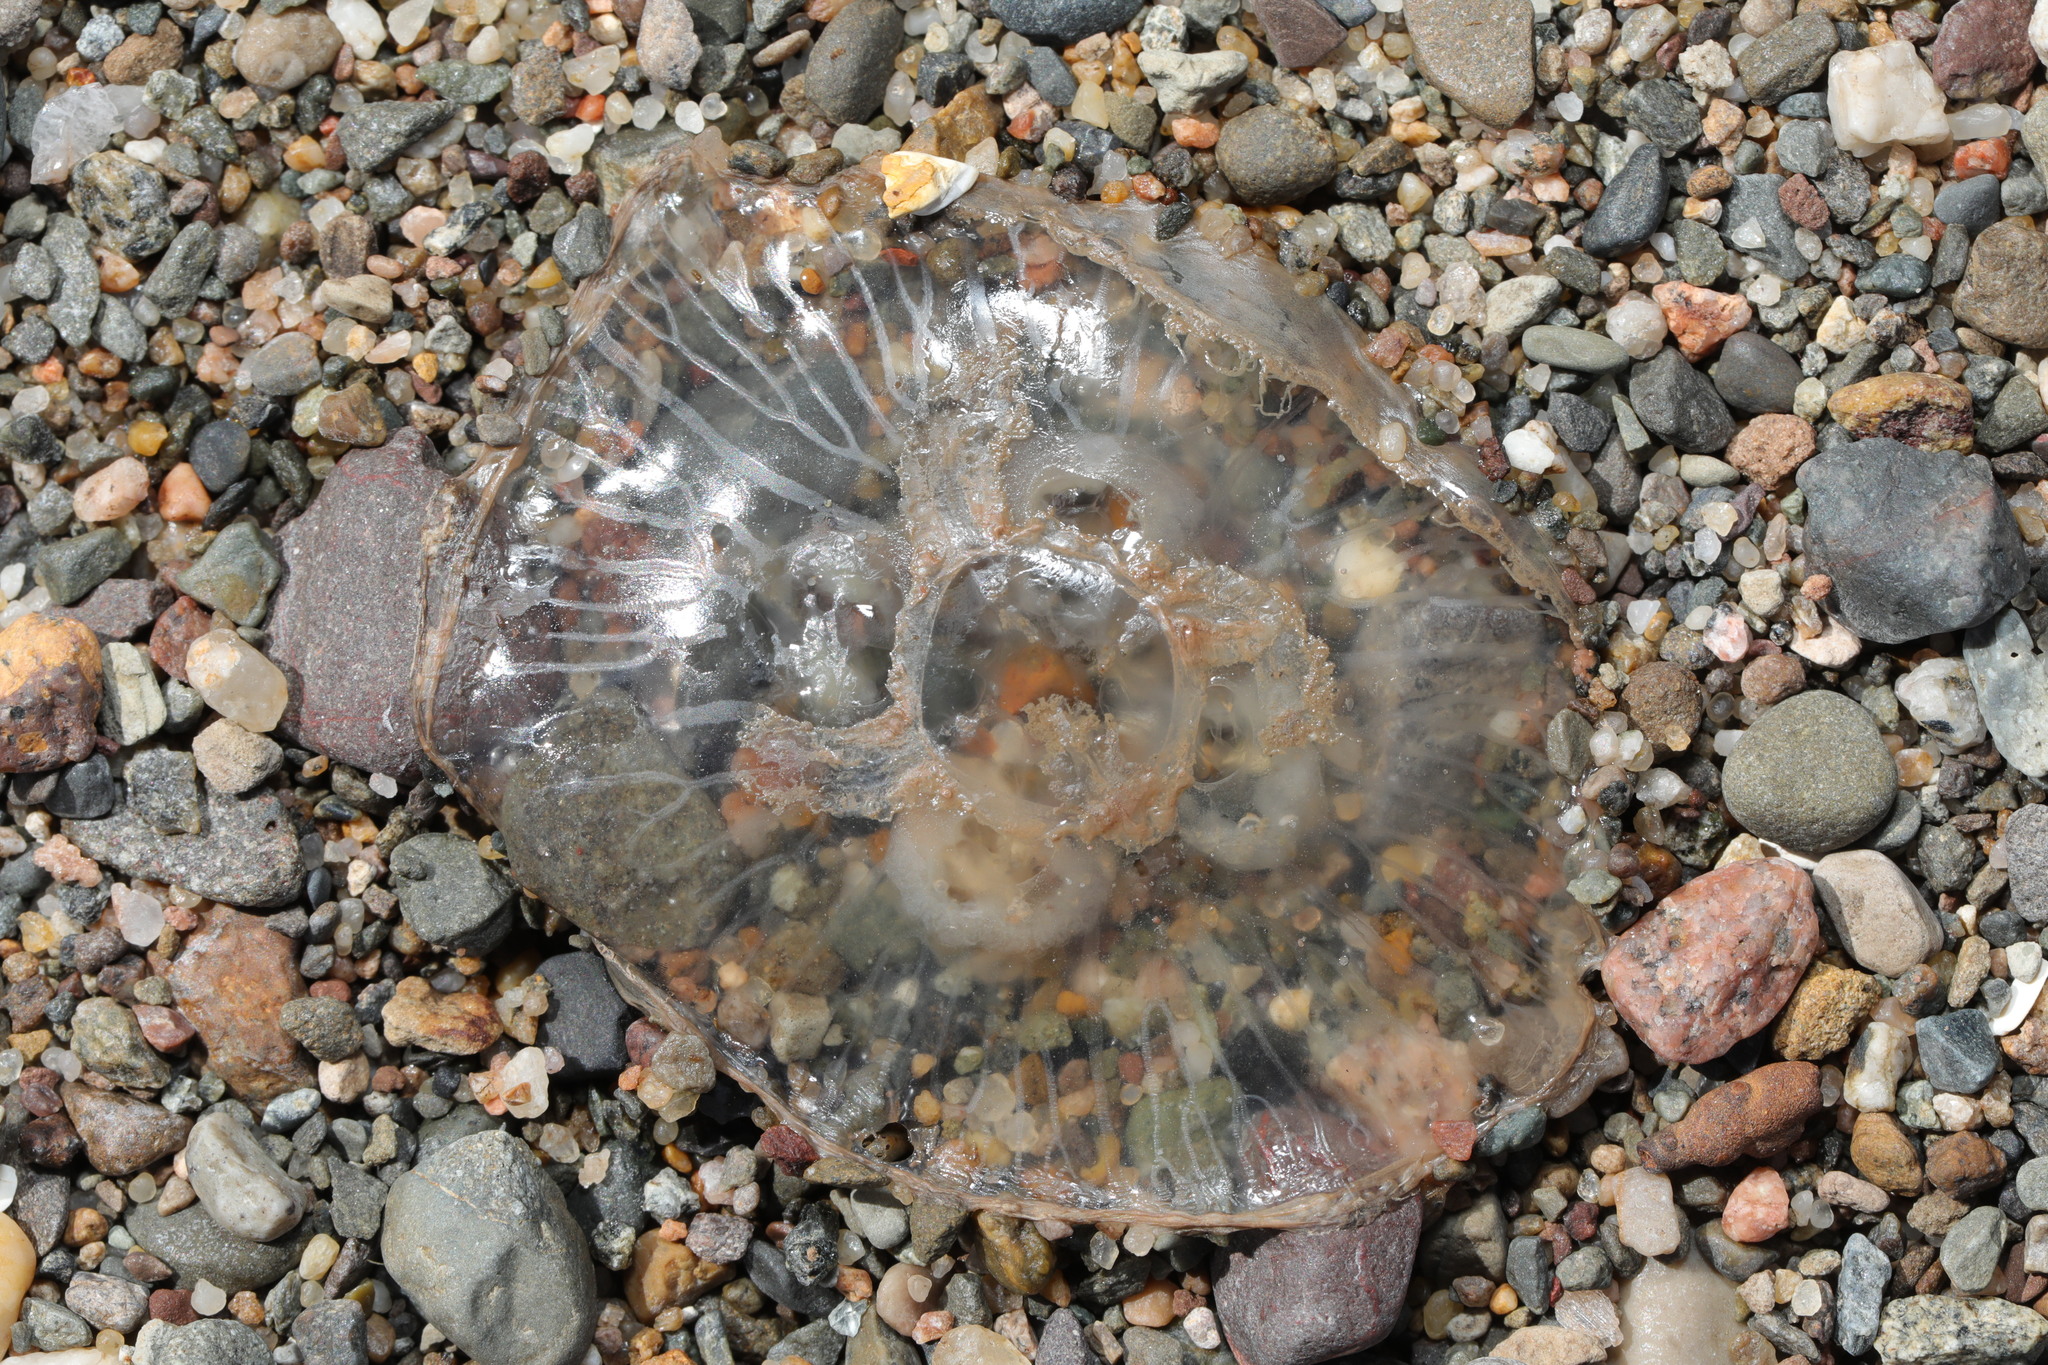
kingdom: Animalia
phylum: Cnidaria
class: Scyphozoa
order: Semaeostomeae
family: Ulmaridae
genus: Aurelia
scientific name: Aurelia aurita
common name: Moon jellyfish
